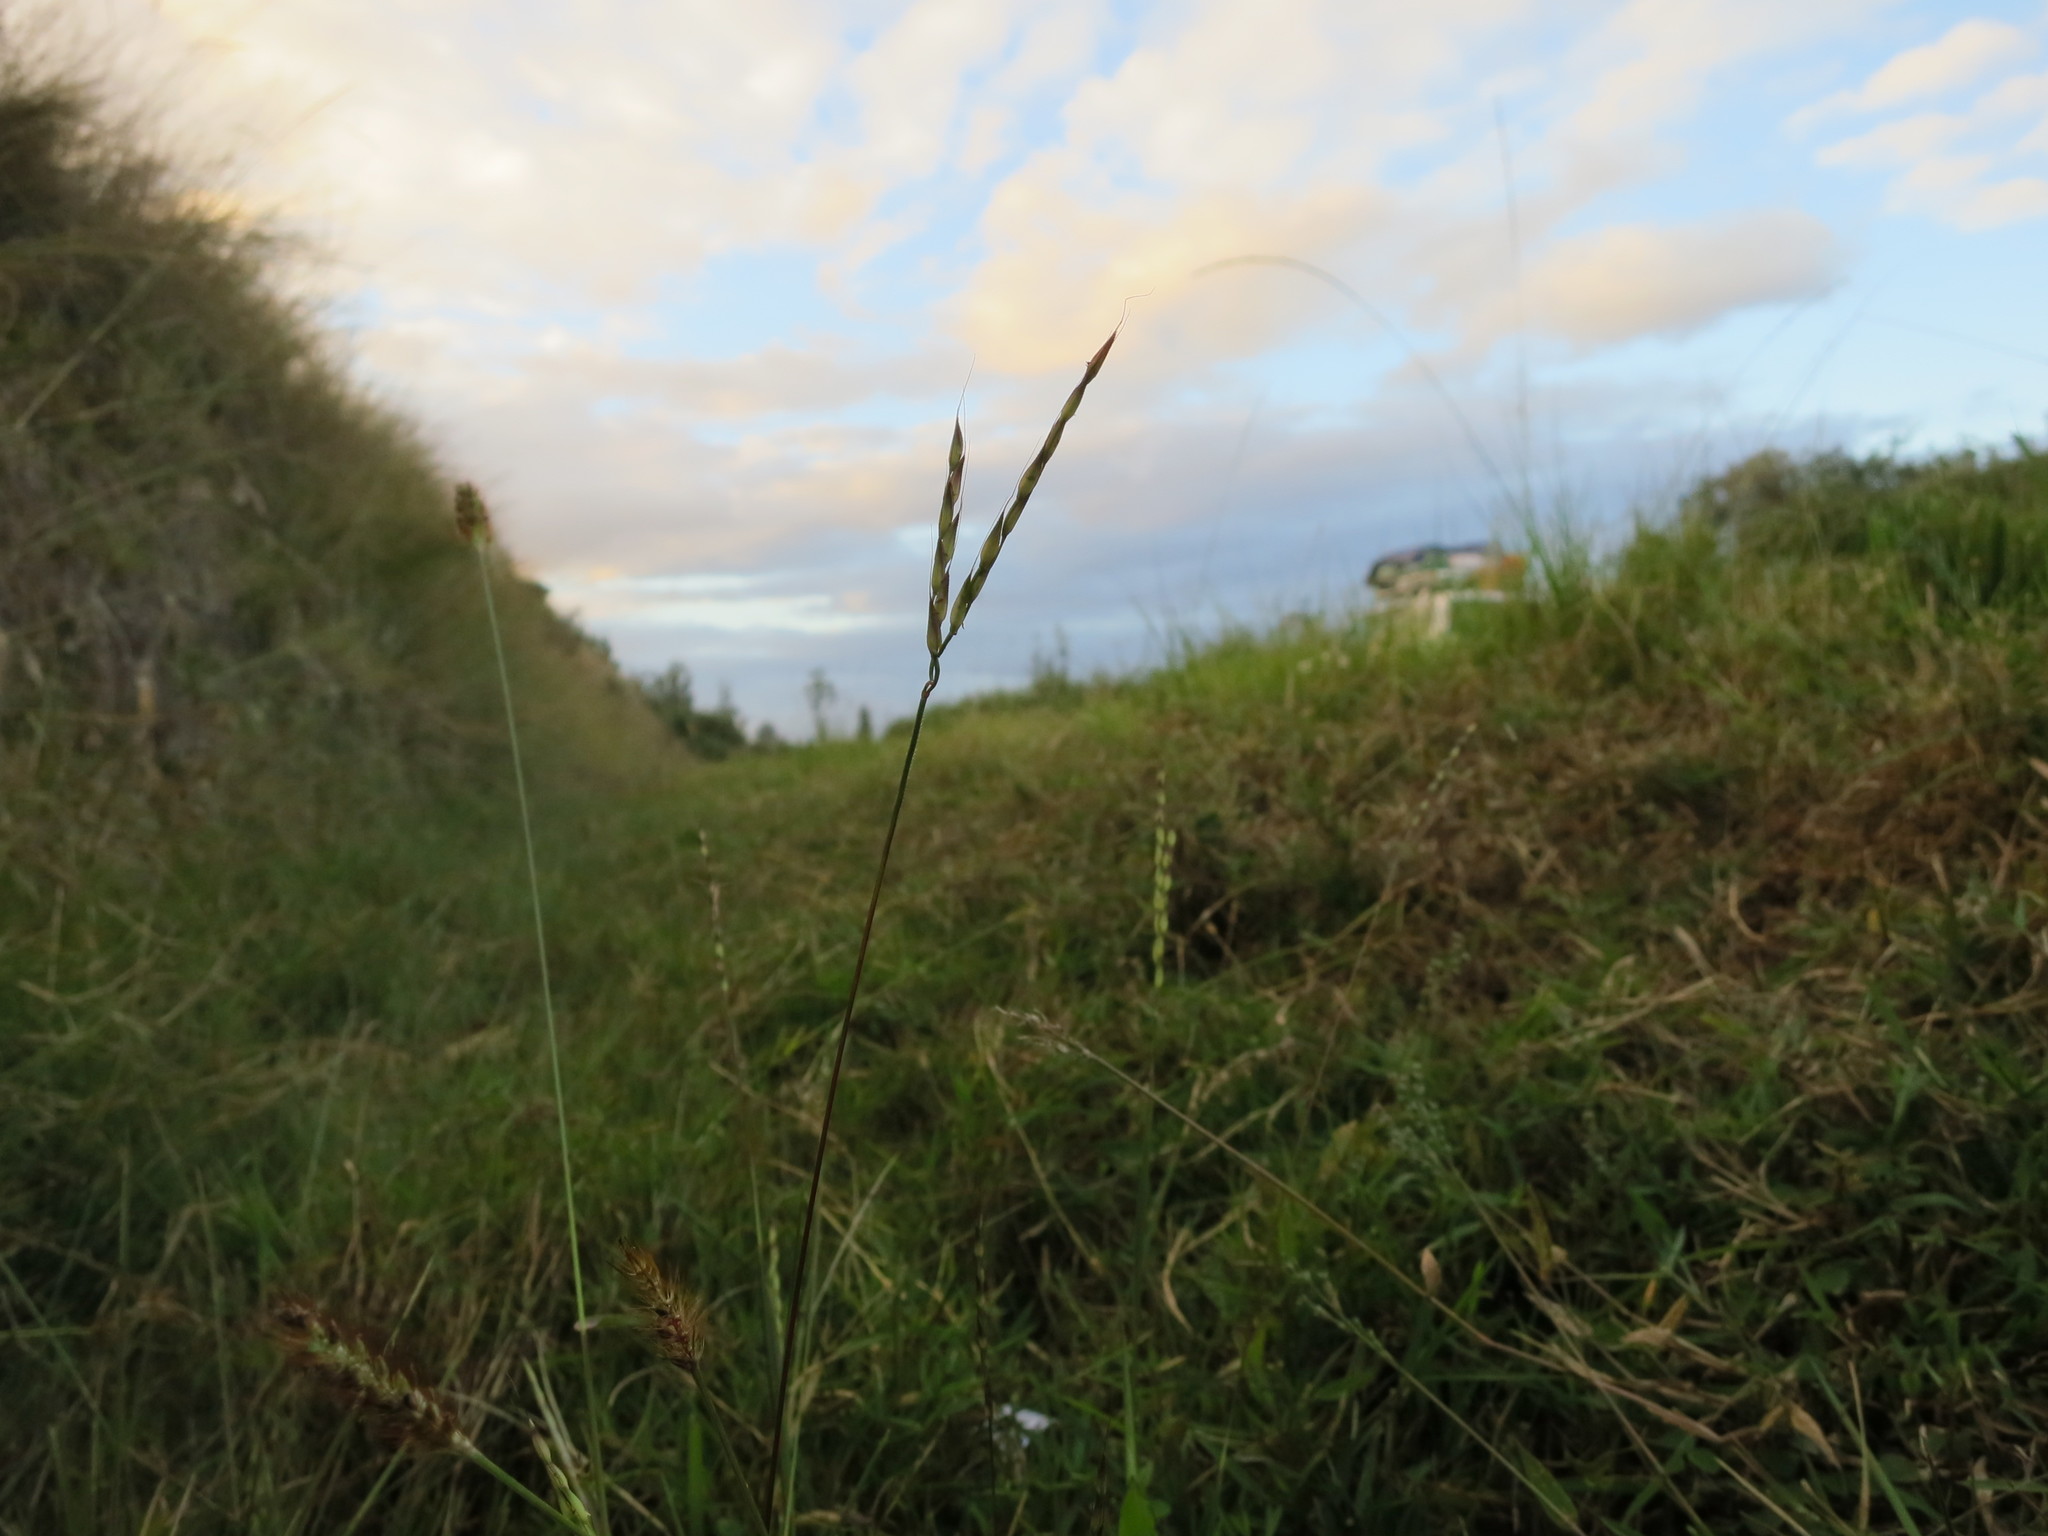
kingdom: Plantae
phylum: Tracheophyta
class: Liliopsida
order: Poales
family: Poaceae
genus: Arthraxon
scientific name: Arthraxon antsirabensis
